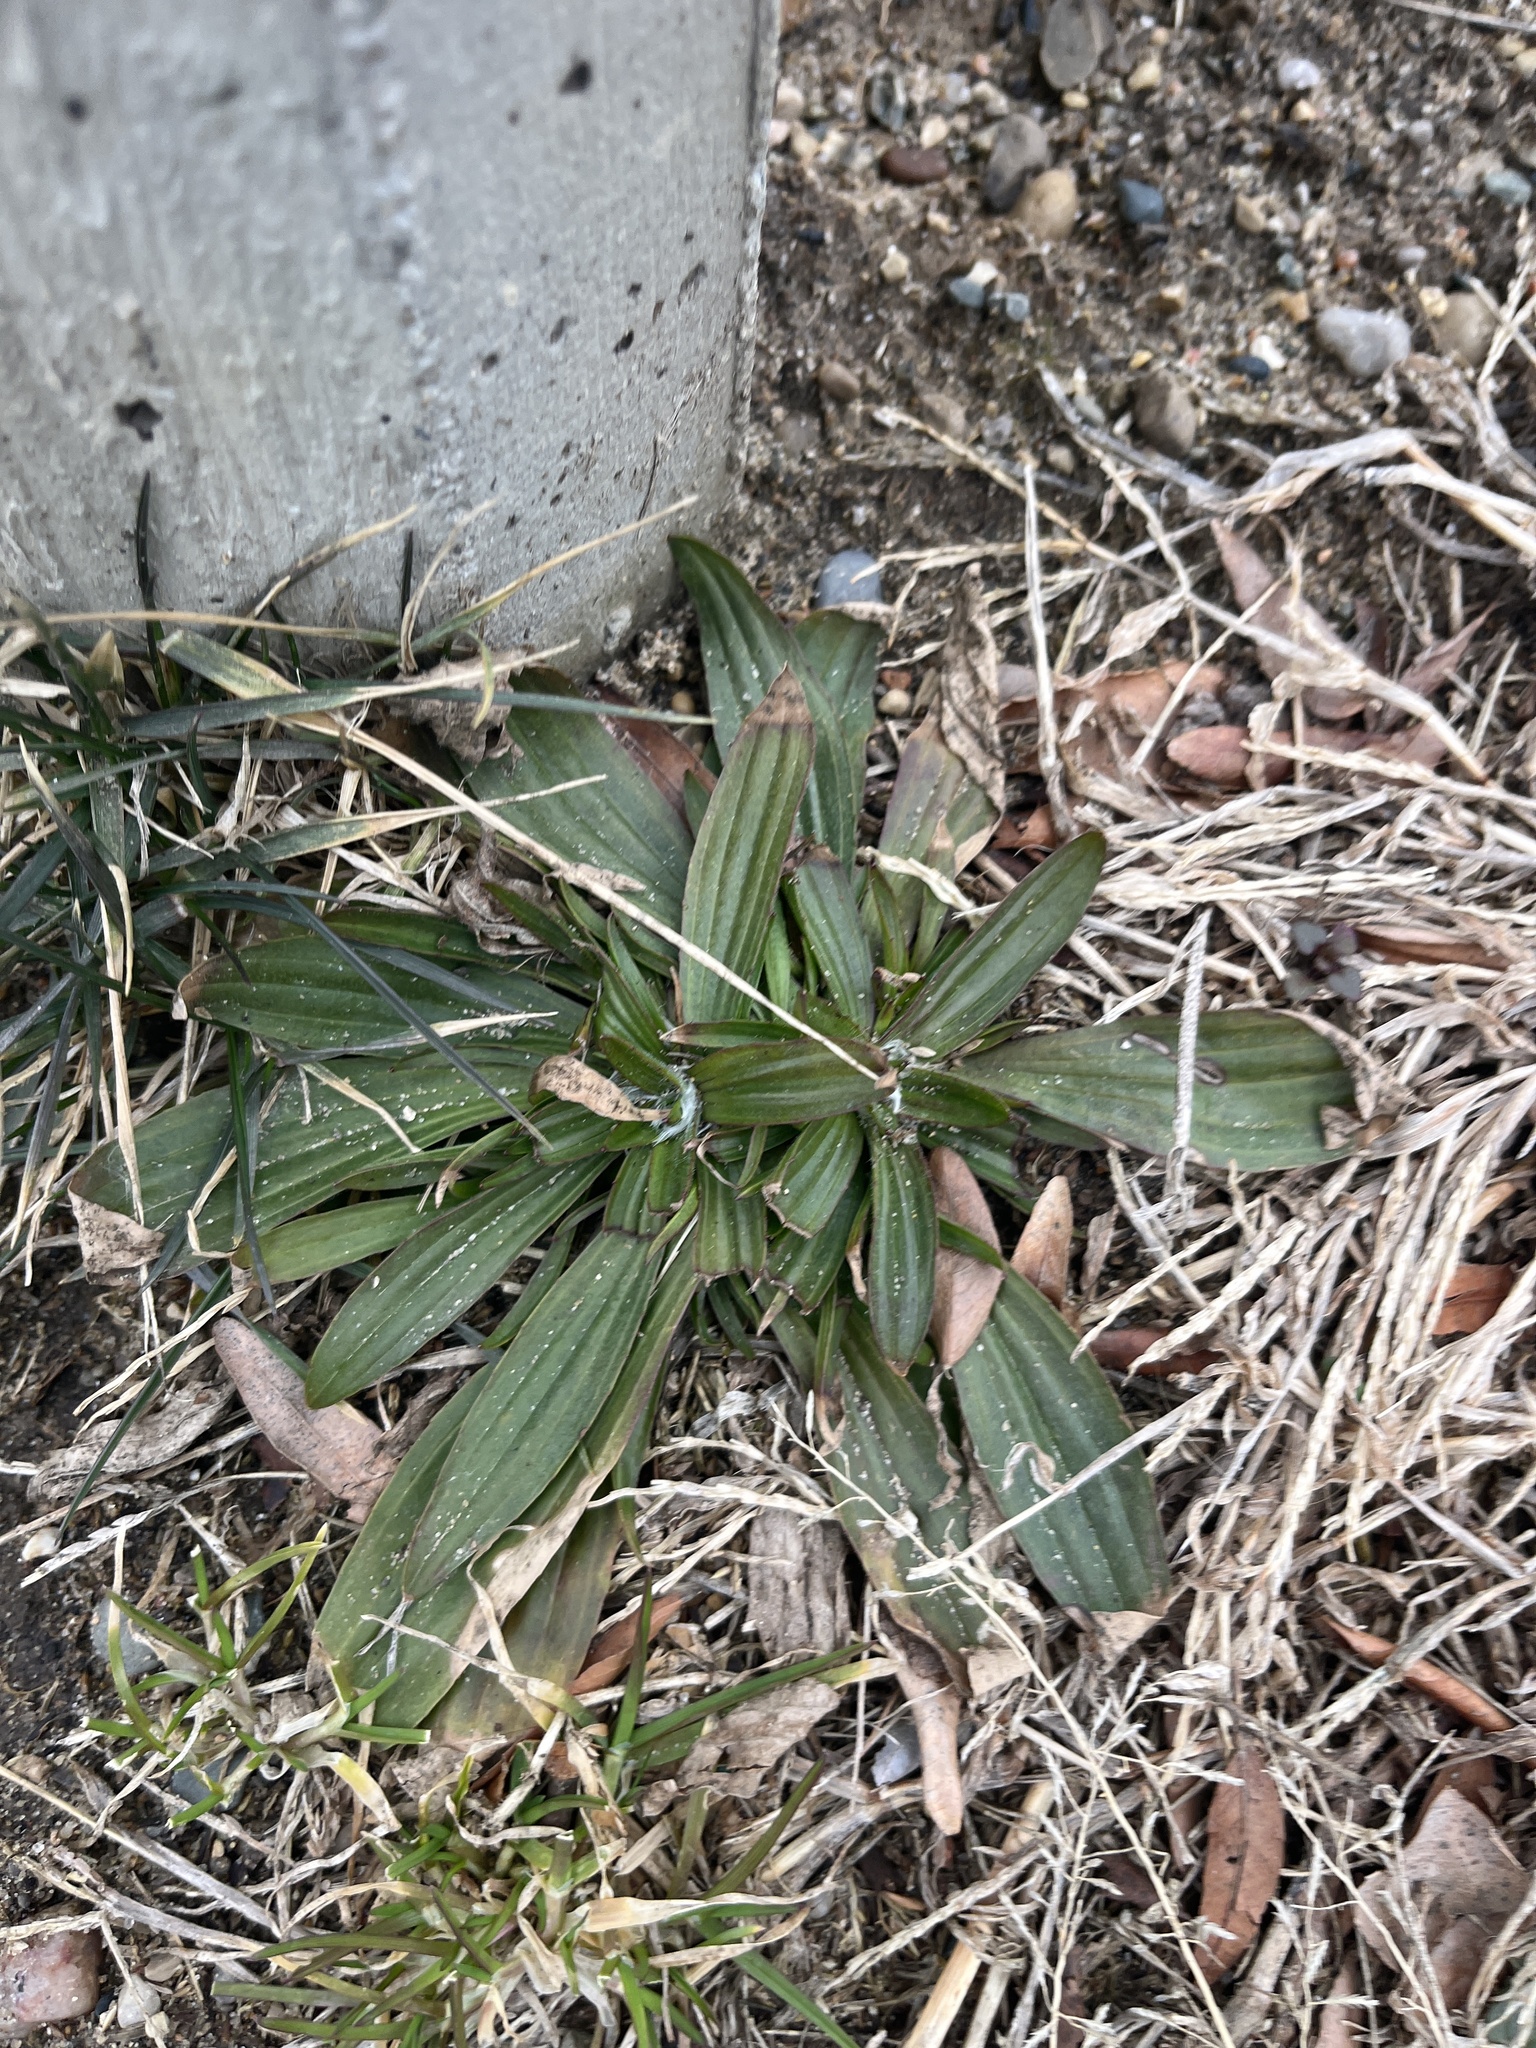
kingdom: Plantae
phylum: Tracheophyta
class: Magnoliopsida
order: Lamiales
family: Plantaginaceae
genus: Plantago
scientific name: Plantago lanceolata
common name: Ribwort plantain
